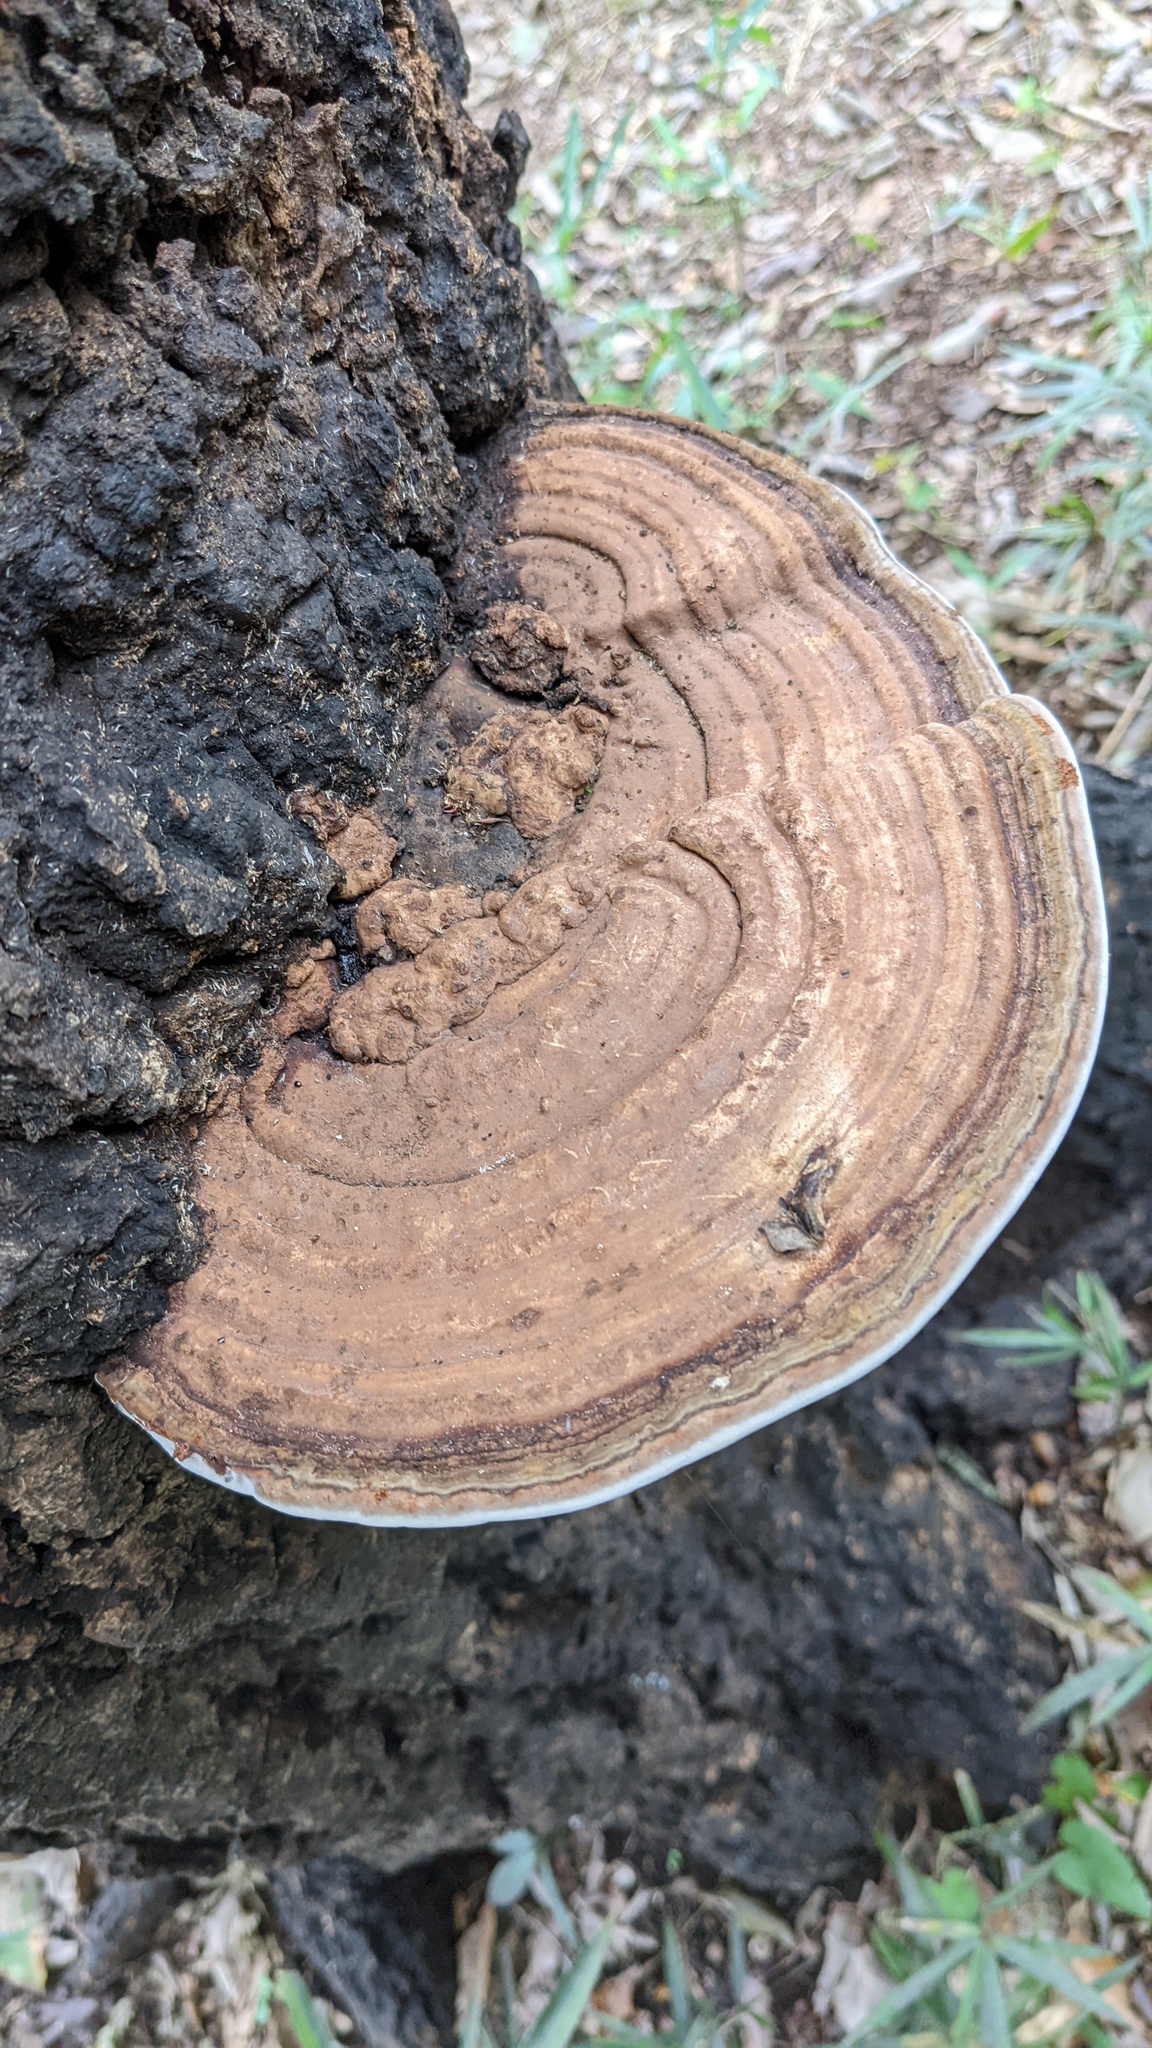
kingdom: Fungi
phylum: Basidiomycota
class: Agaricomycetes
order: Polyporales
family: Polyporaceae
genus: Ganoderma
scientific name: Ganoderma applanatum
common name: Artist's bracket
